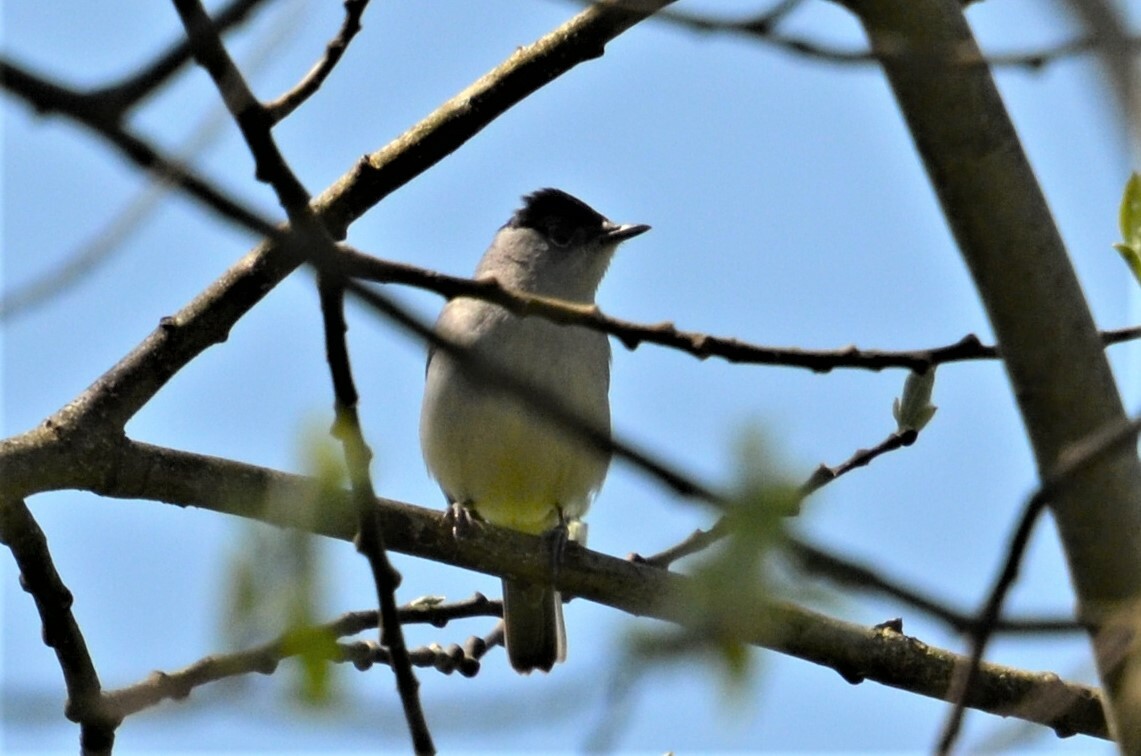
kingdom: Animalia
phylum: Chordata
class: Aves
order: Passeriformes
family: Sylviidae
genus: Sylvia
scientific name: Sylvia atricapilla
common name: Eurasian blackcap
